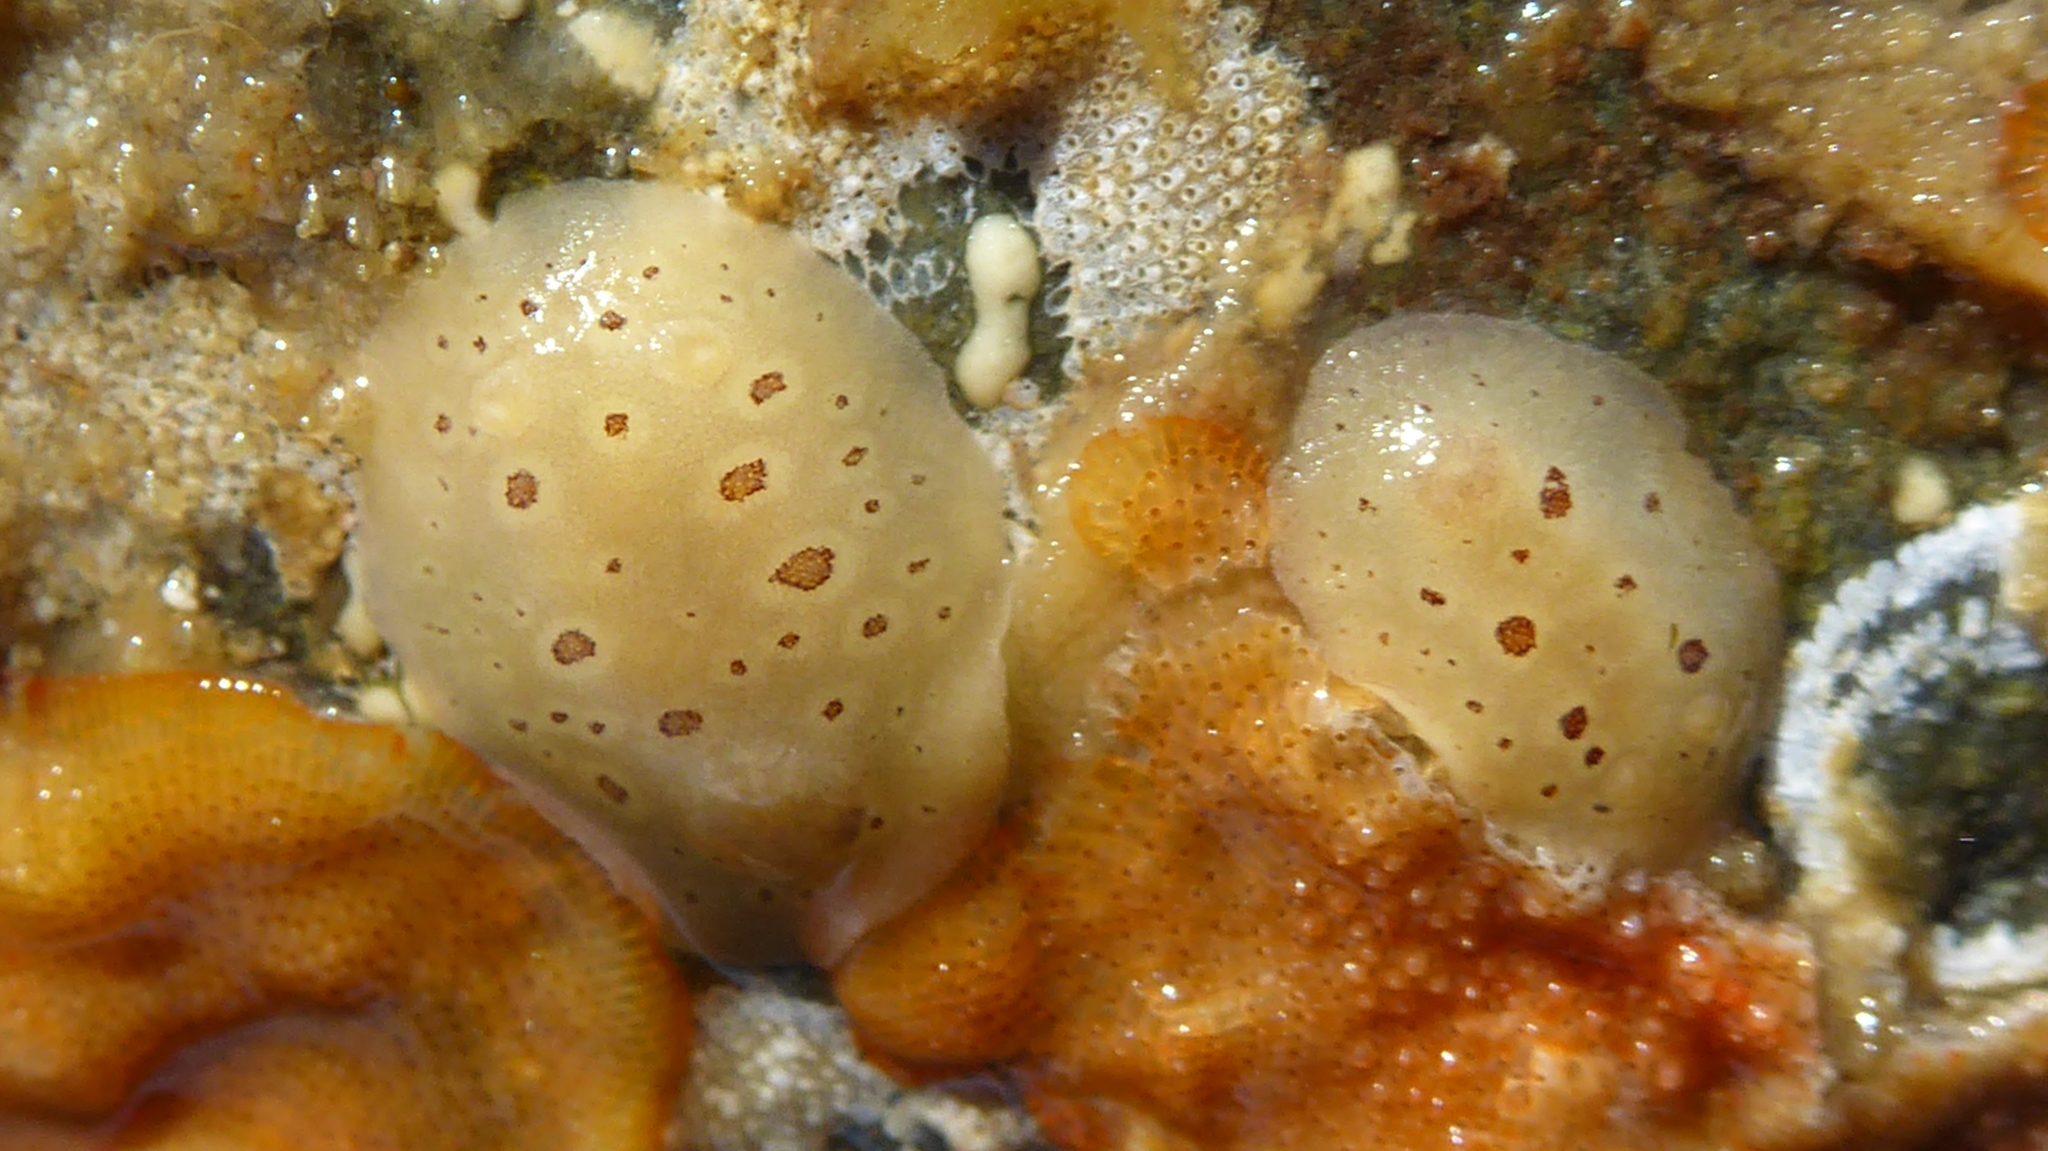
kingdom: Animalia
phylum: Mollusca
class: Gastropoda
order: Nudibranchia
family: Discodorididae
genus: Diaulula
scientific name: Diaulula odonoghuei
